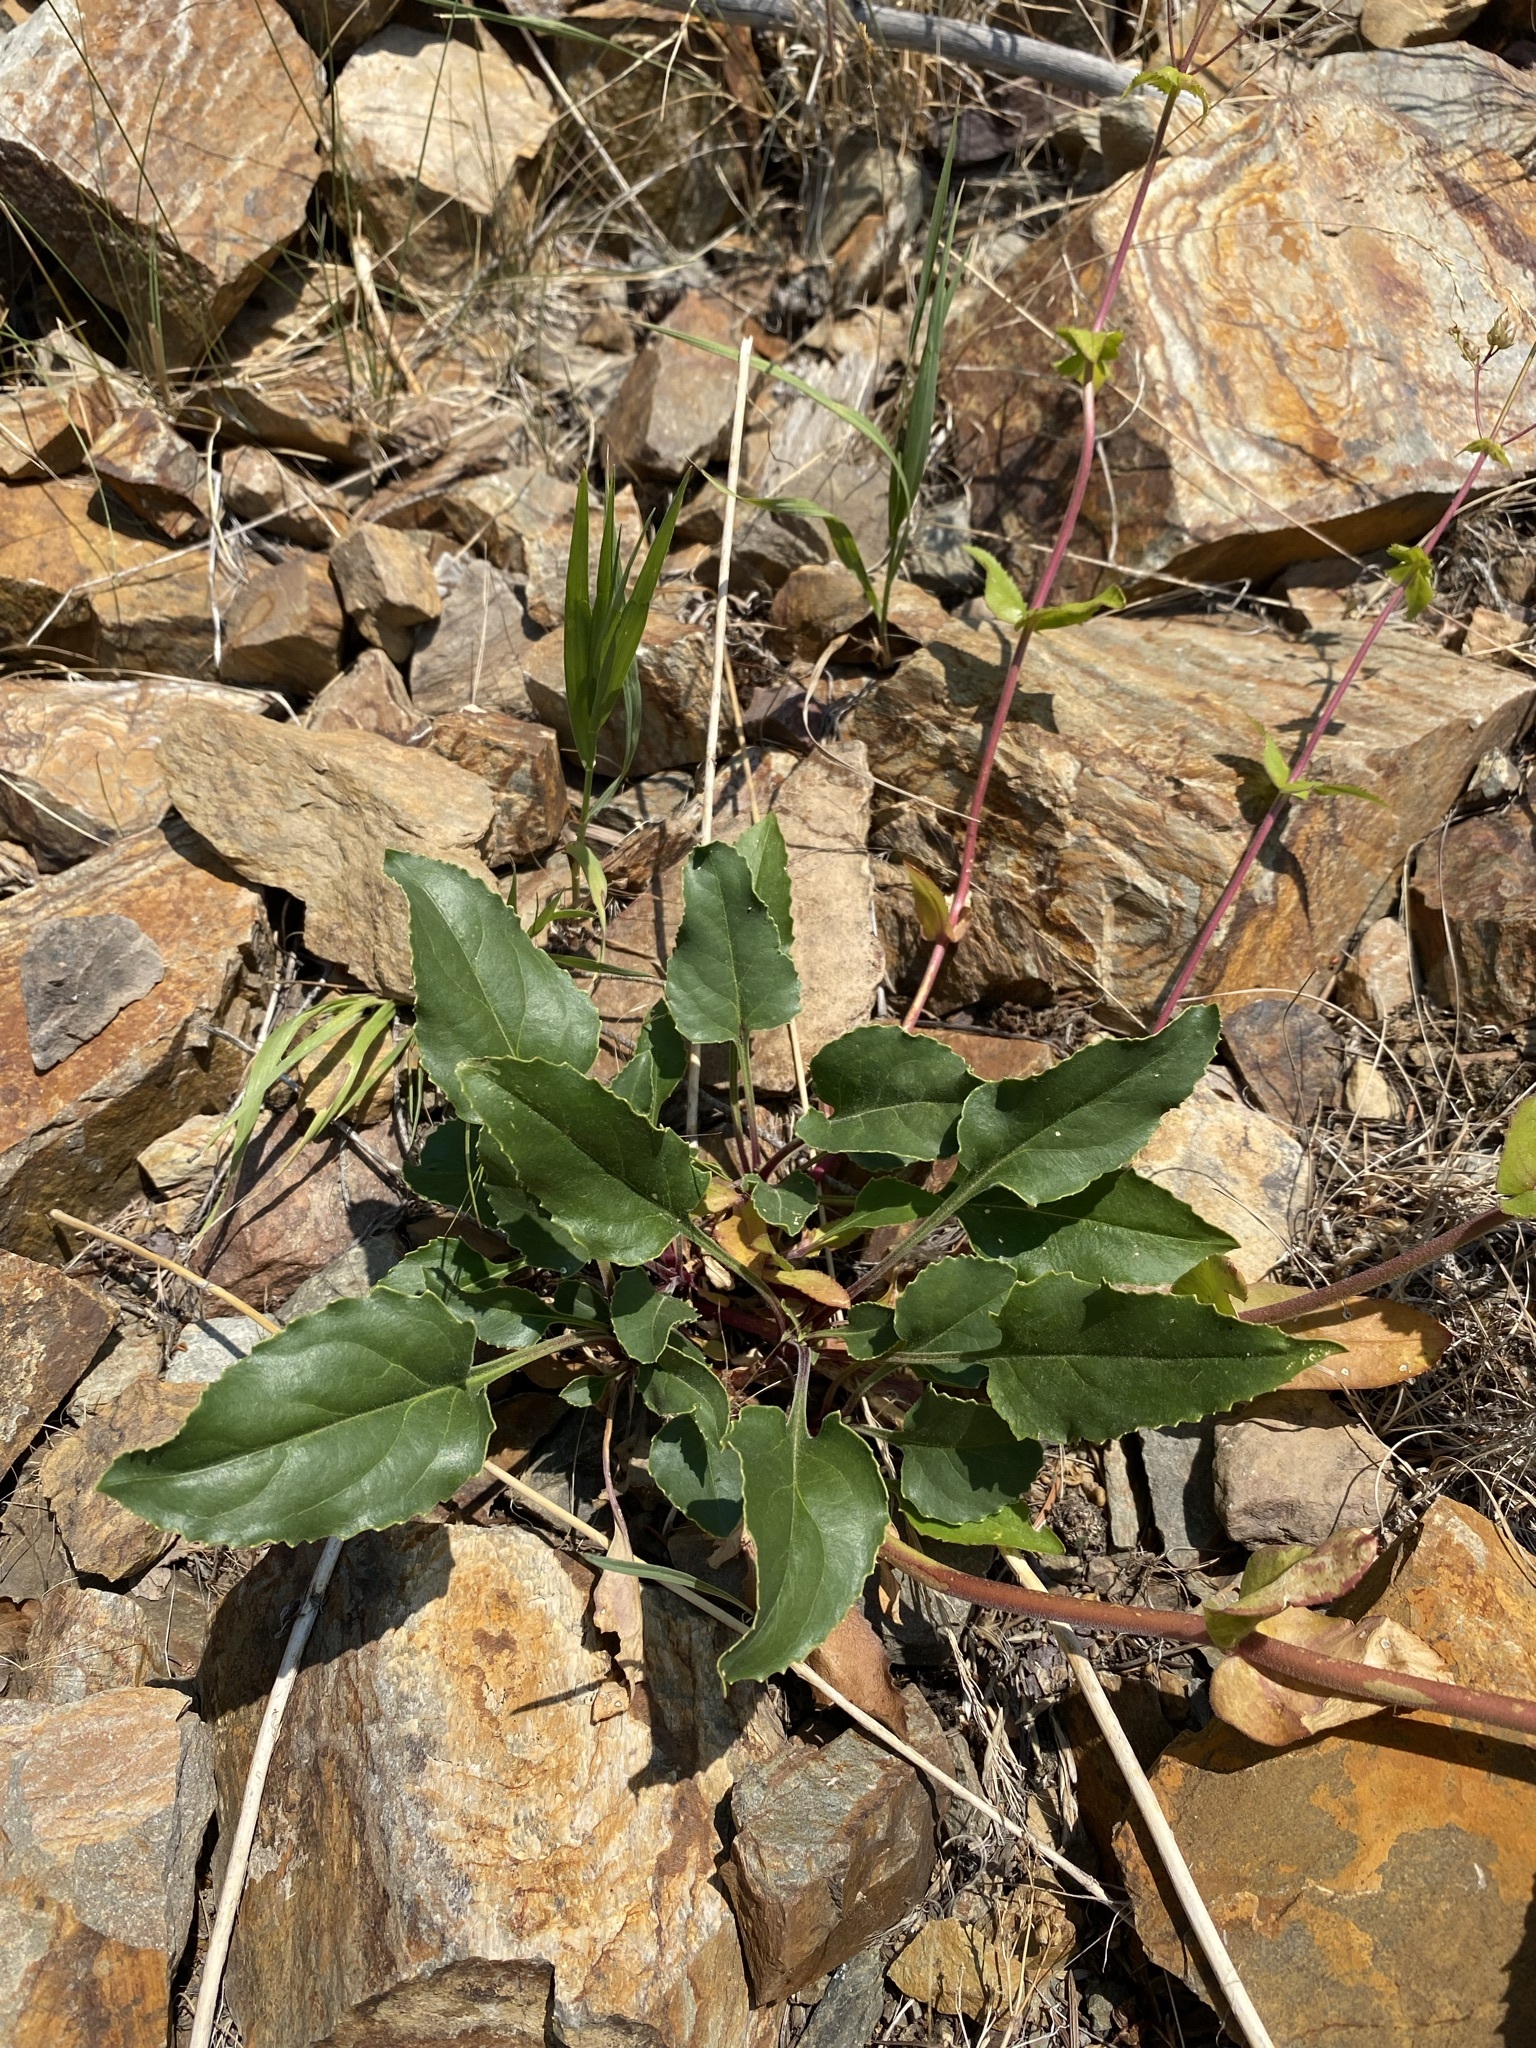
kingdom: Plantae
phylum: Tracheophyta
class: Magnoliopsida
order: Lamiales
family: Plantaginaceae
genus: Penstemon
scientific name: Penstemon wilcoxii
